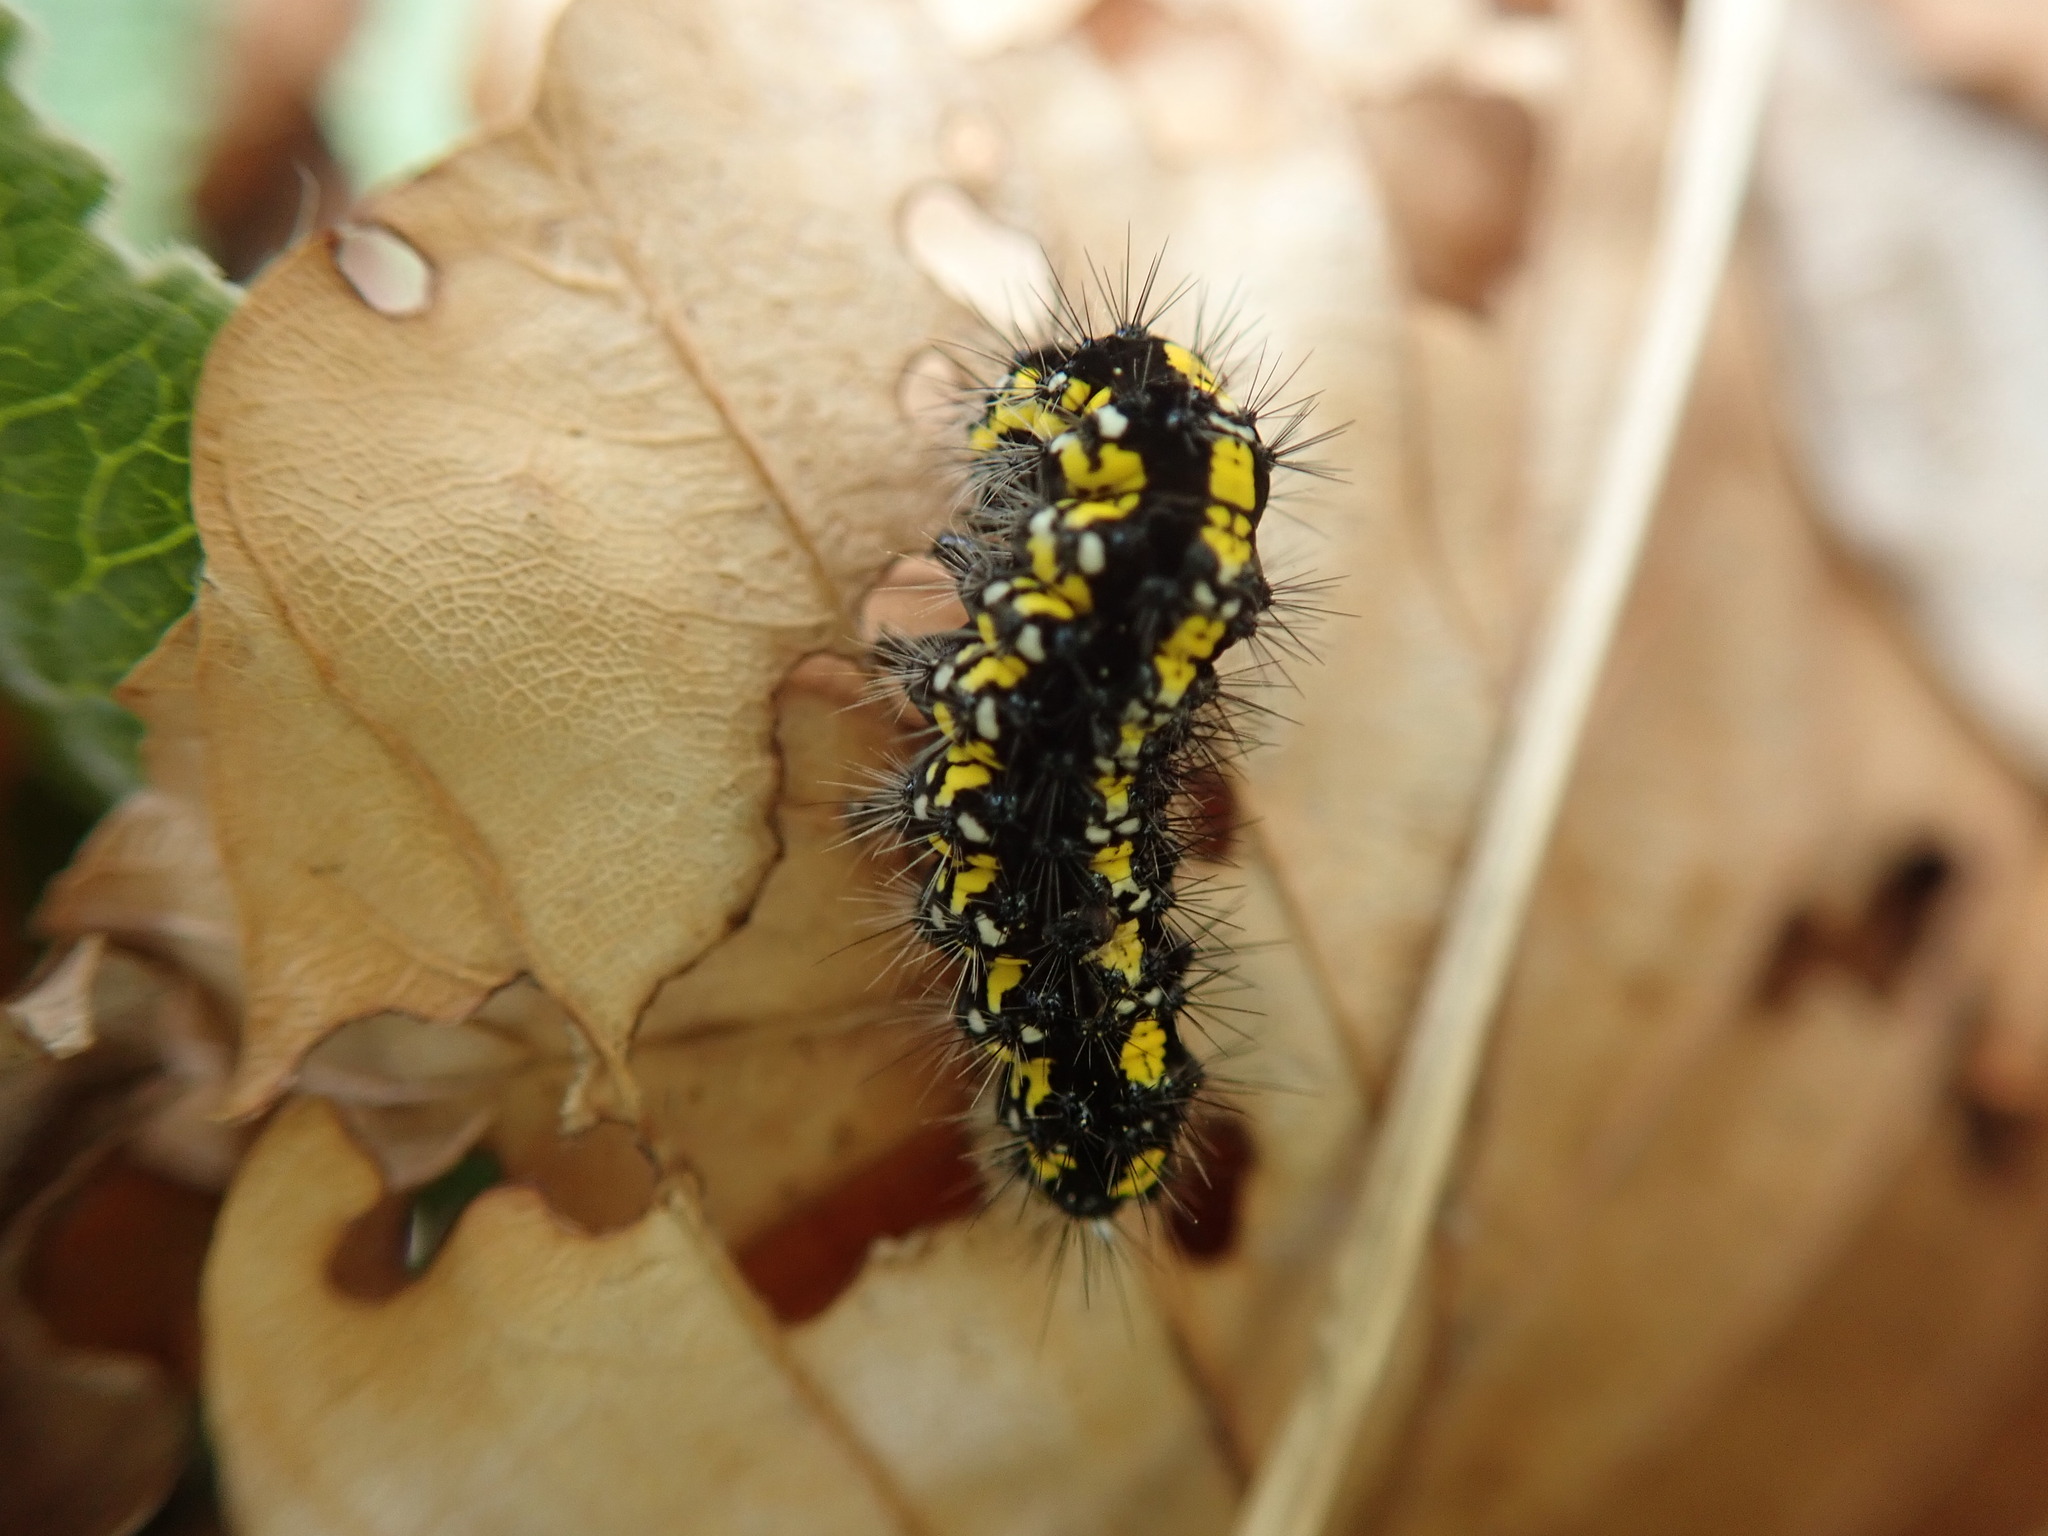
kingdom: Animalia
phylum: Arthropoda
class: Insecta
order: Lepidoptera
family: Erebidae
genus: Callimorpha
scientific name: Callimorpha dominula
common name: Scarlet tiger
